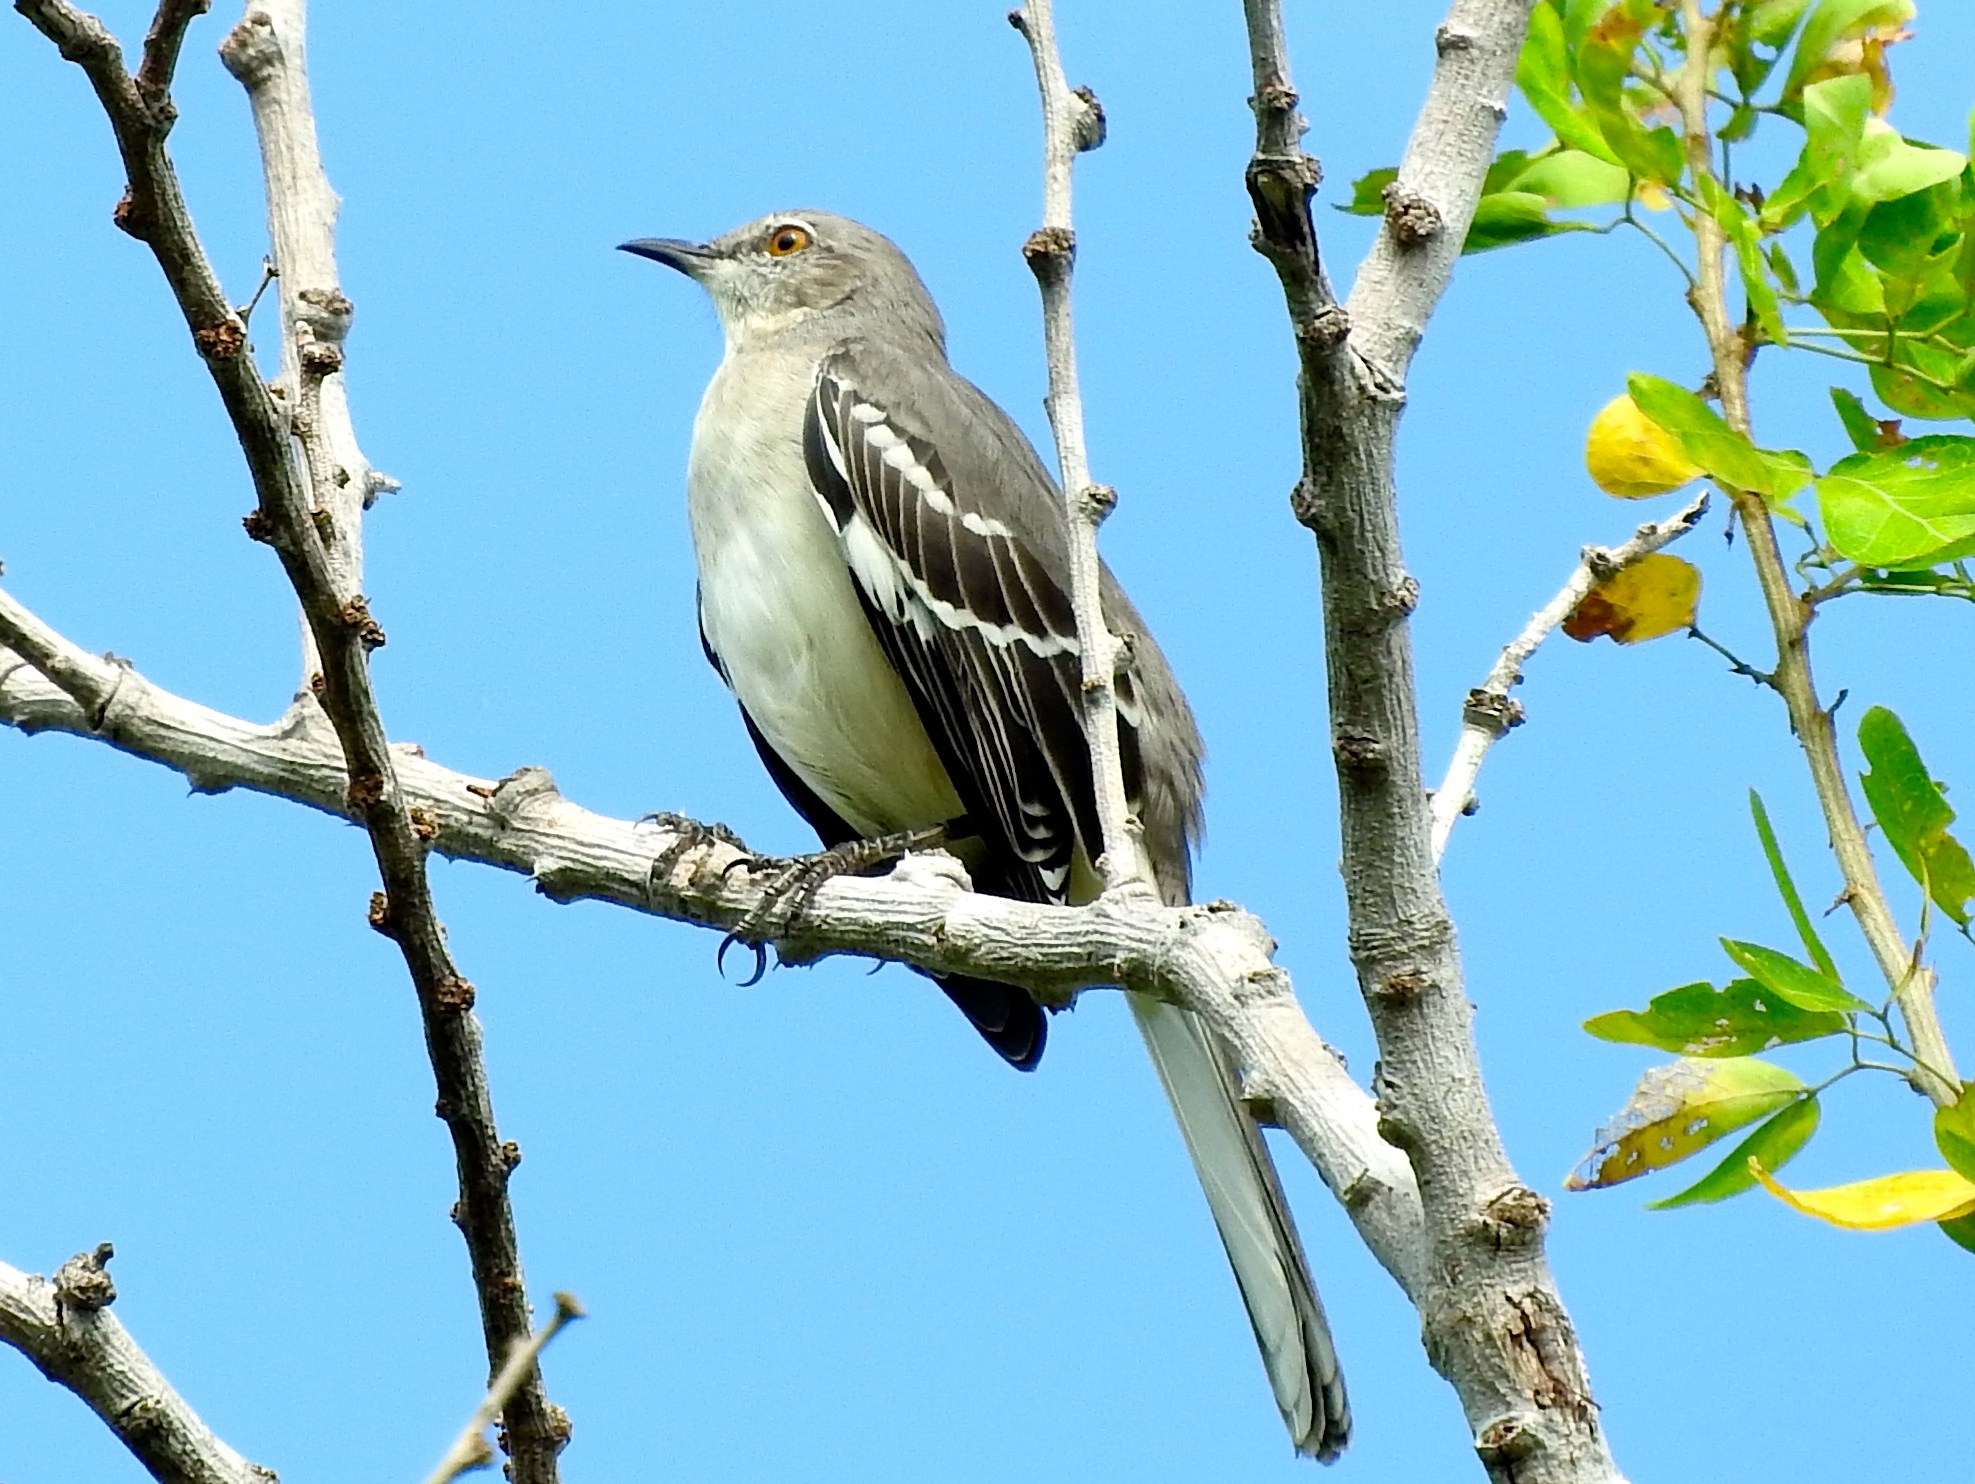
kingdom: Animalia
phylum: Chordata
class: Aves
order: Passeriformes
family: Mimidae
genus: Mimus
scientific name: Mimus polyglottos
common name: Northern mockingbird
